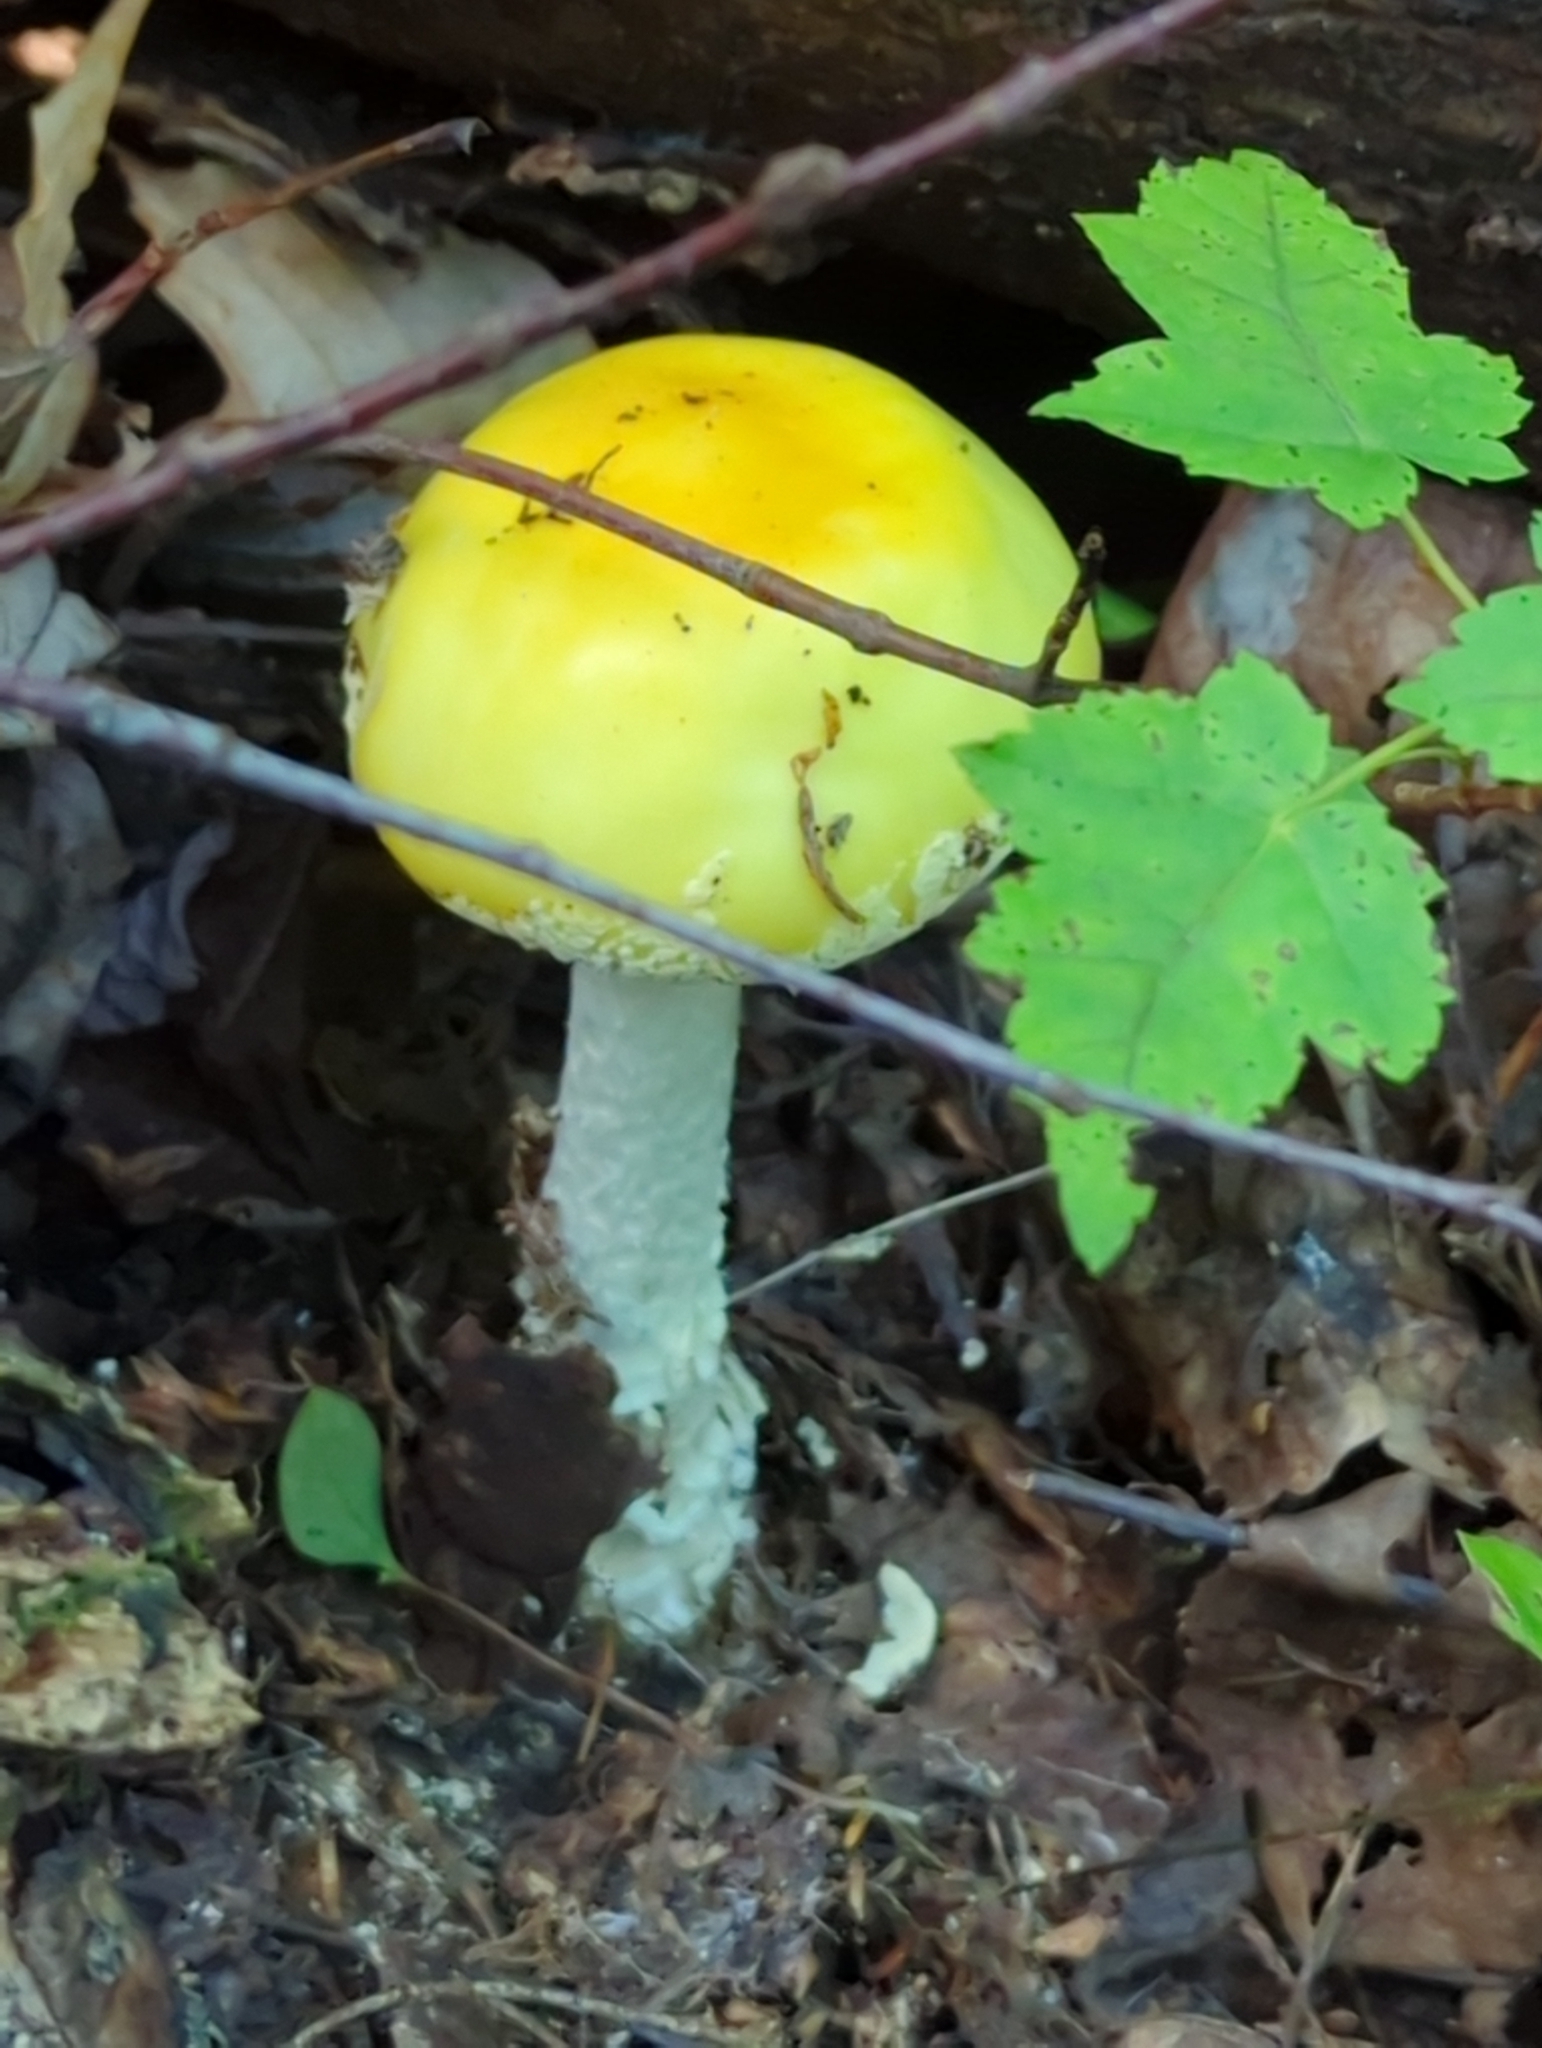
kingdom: Fungi
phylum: Basidiomycota
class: Agaricomycetes
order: Agaricales
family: Amanitaceae
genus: Amanita
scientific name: Amanita muscaria
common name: Fly agaric
